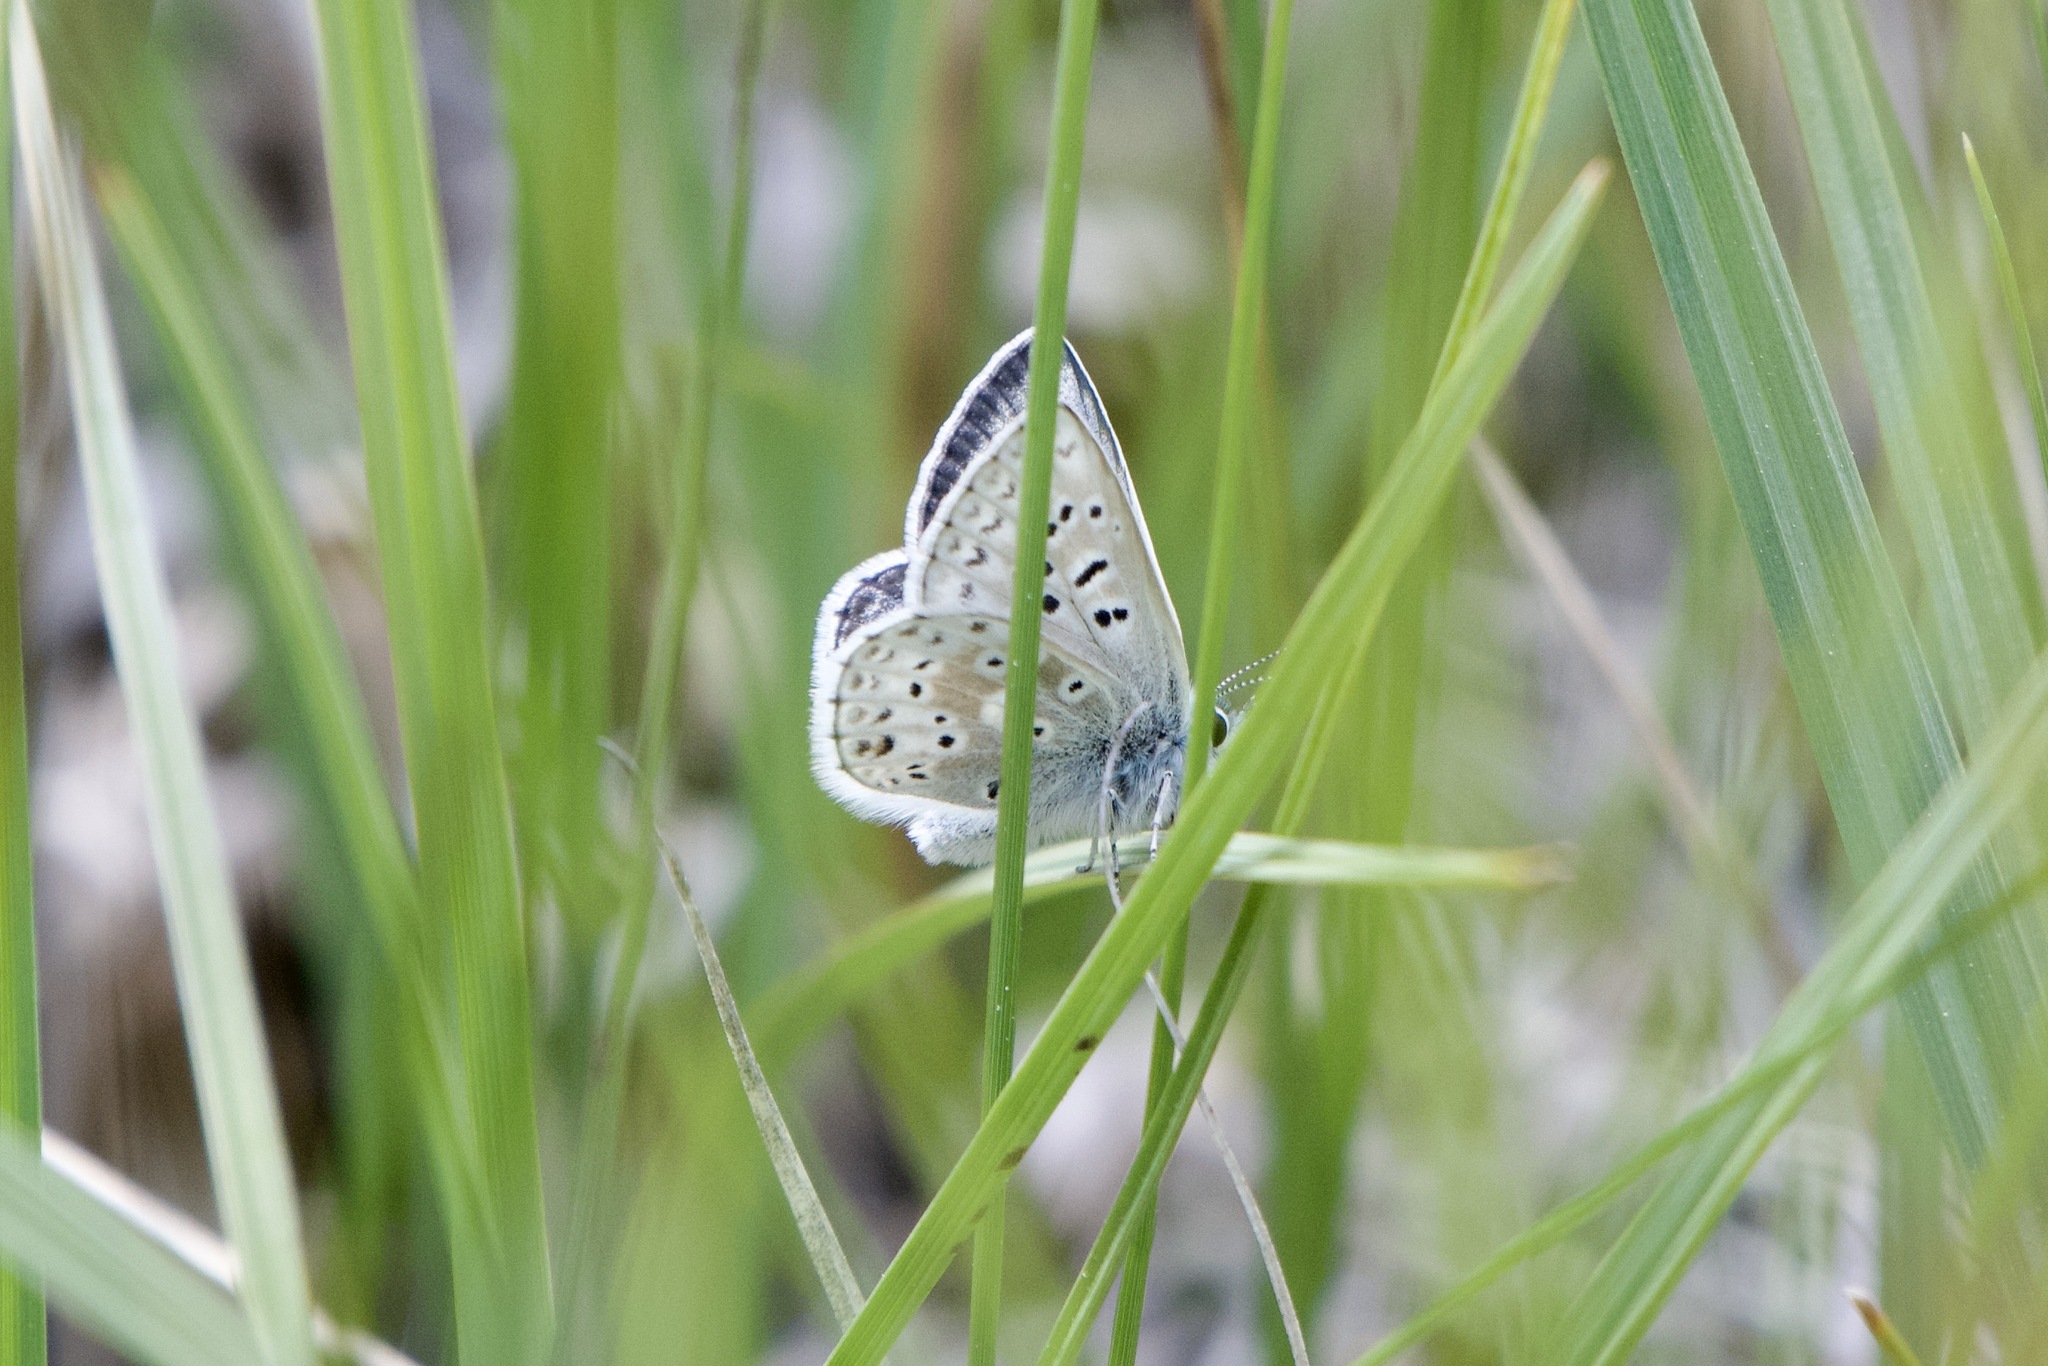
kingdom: Animalia
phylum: Arthropoda
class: Insecta
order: Lepidoptera
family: Lycaenidae
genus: Agriades
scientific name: Agriades podarce
